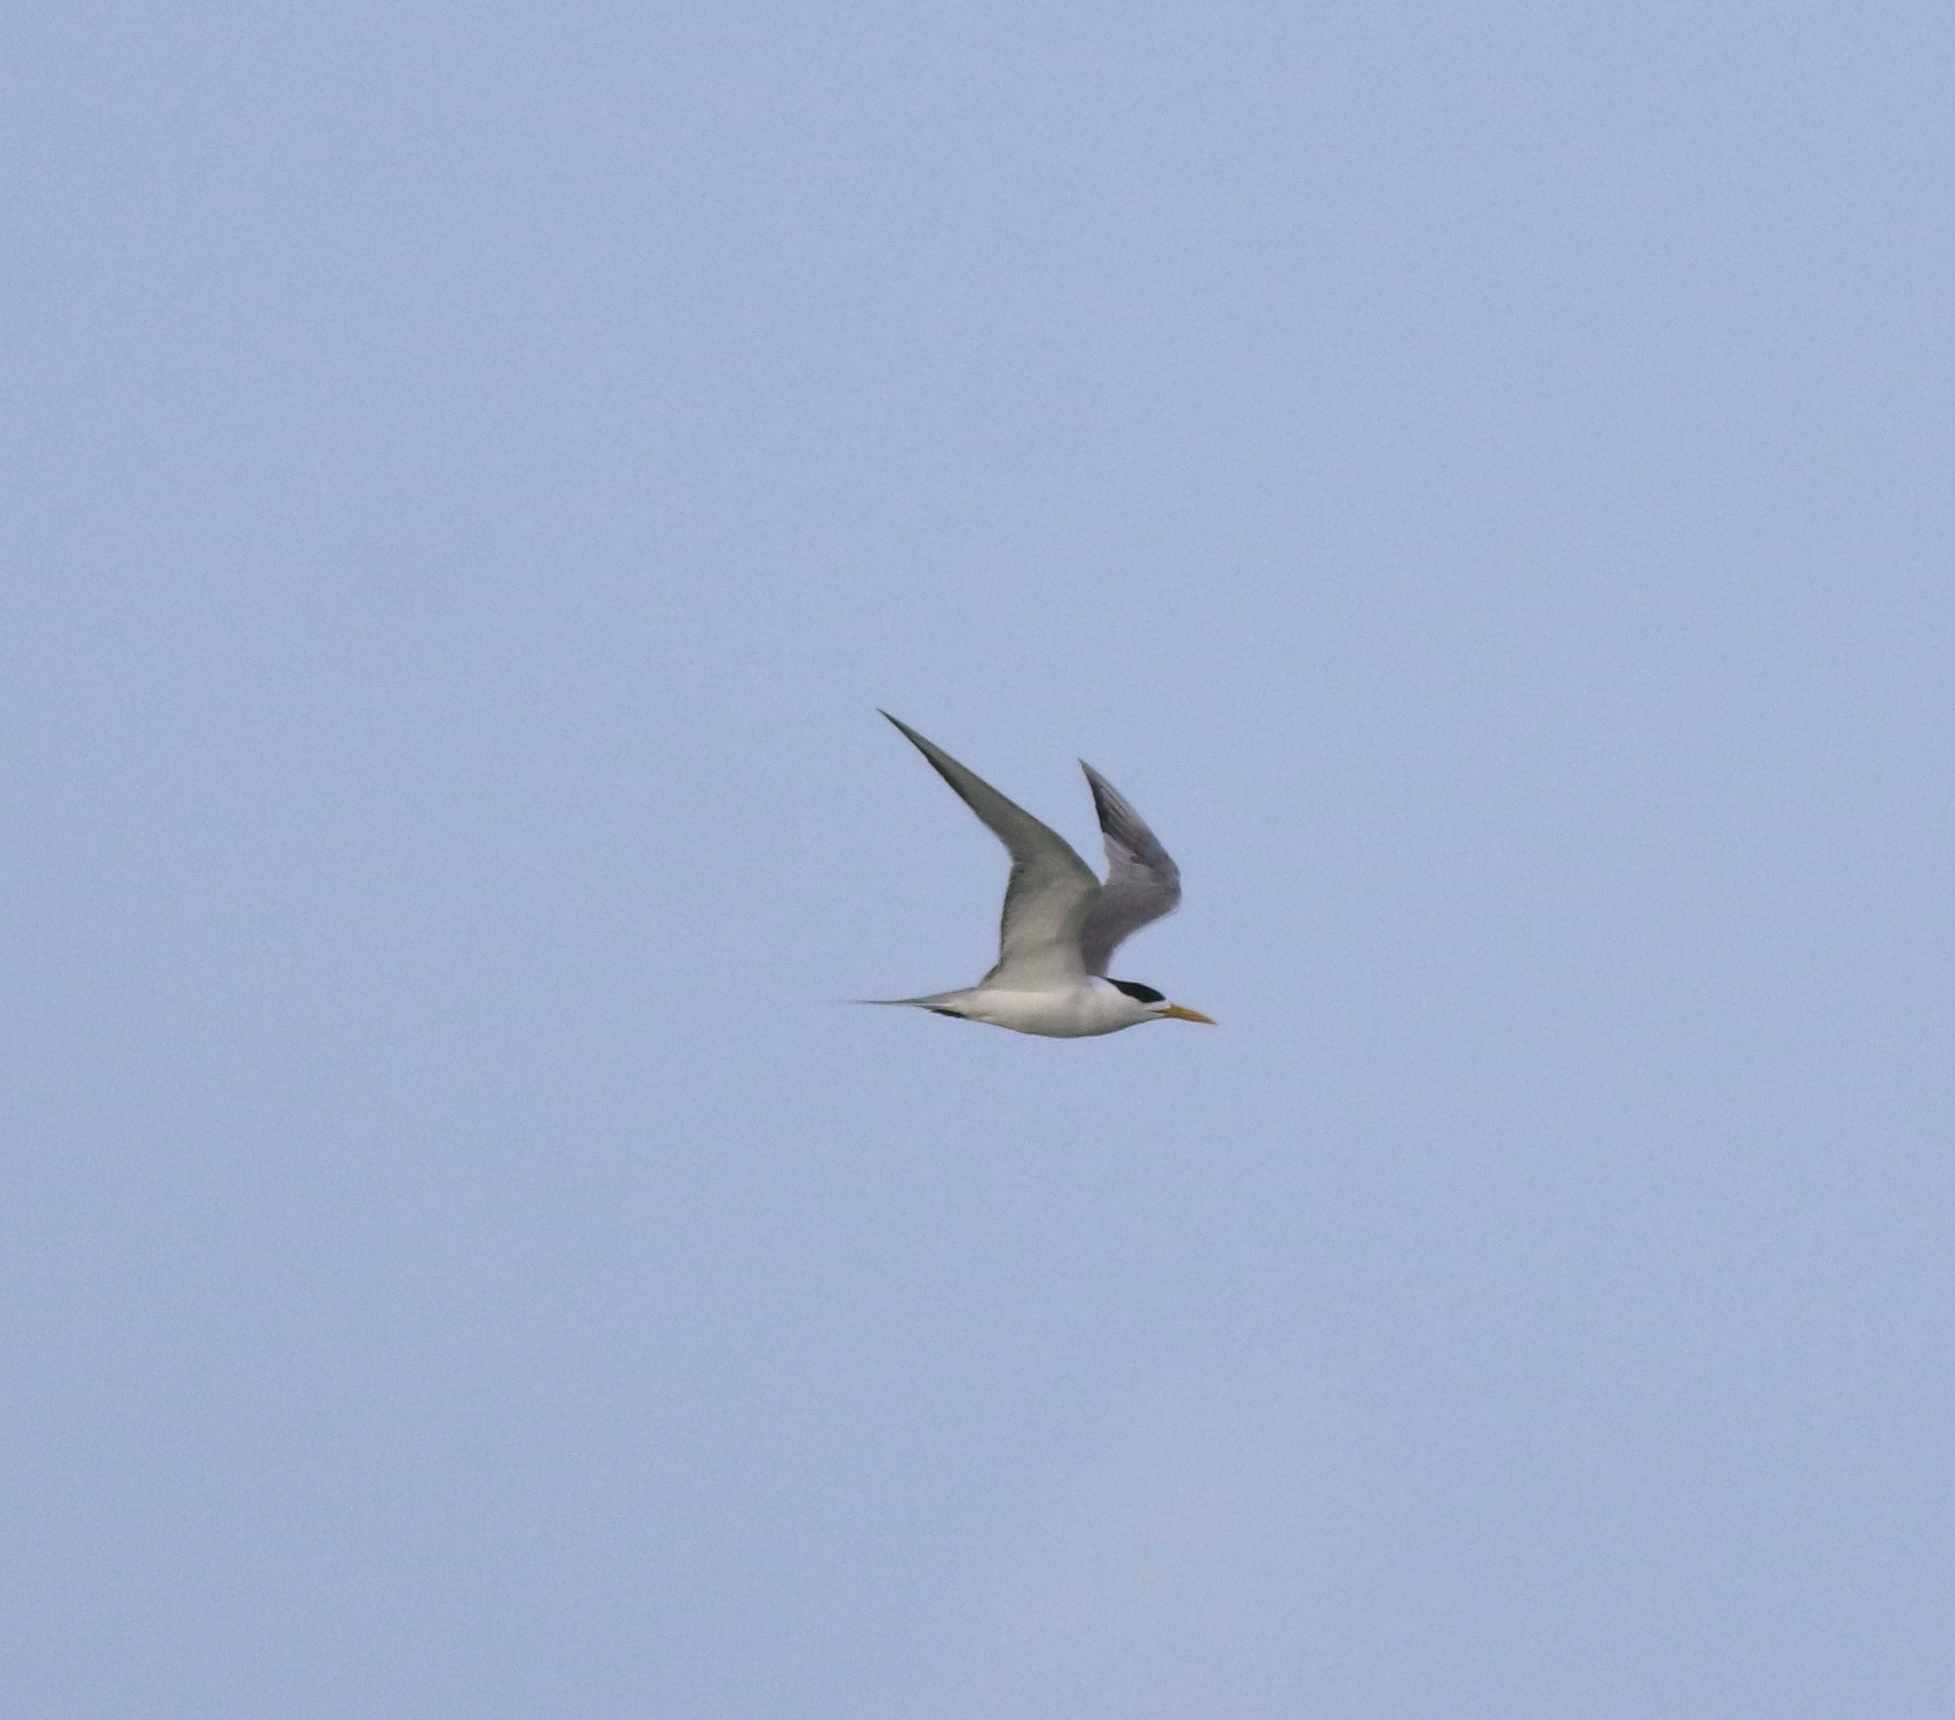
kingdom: Animalia
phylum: Chordata
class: Aves
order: Charadriiformes
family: Laridae
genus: Thalasseus
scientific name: Thalasseus bergii
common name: Greater crested tern
